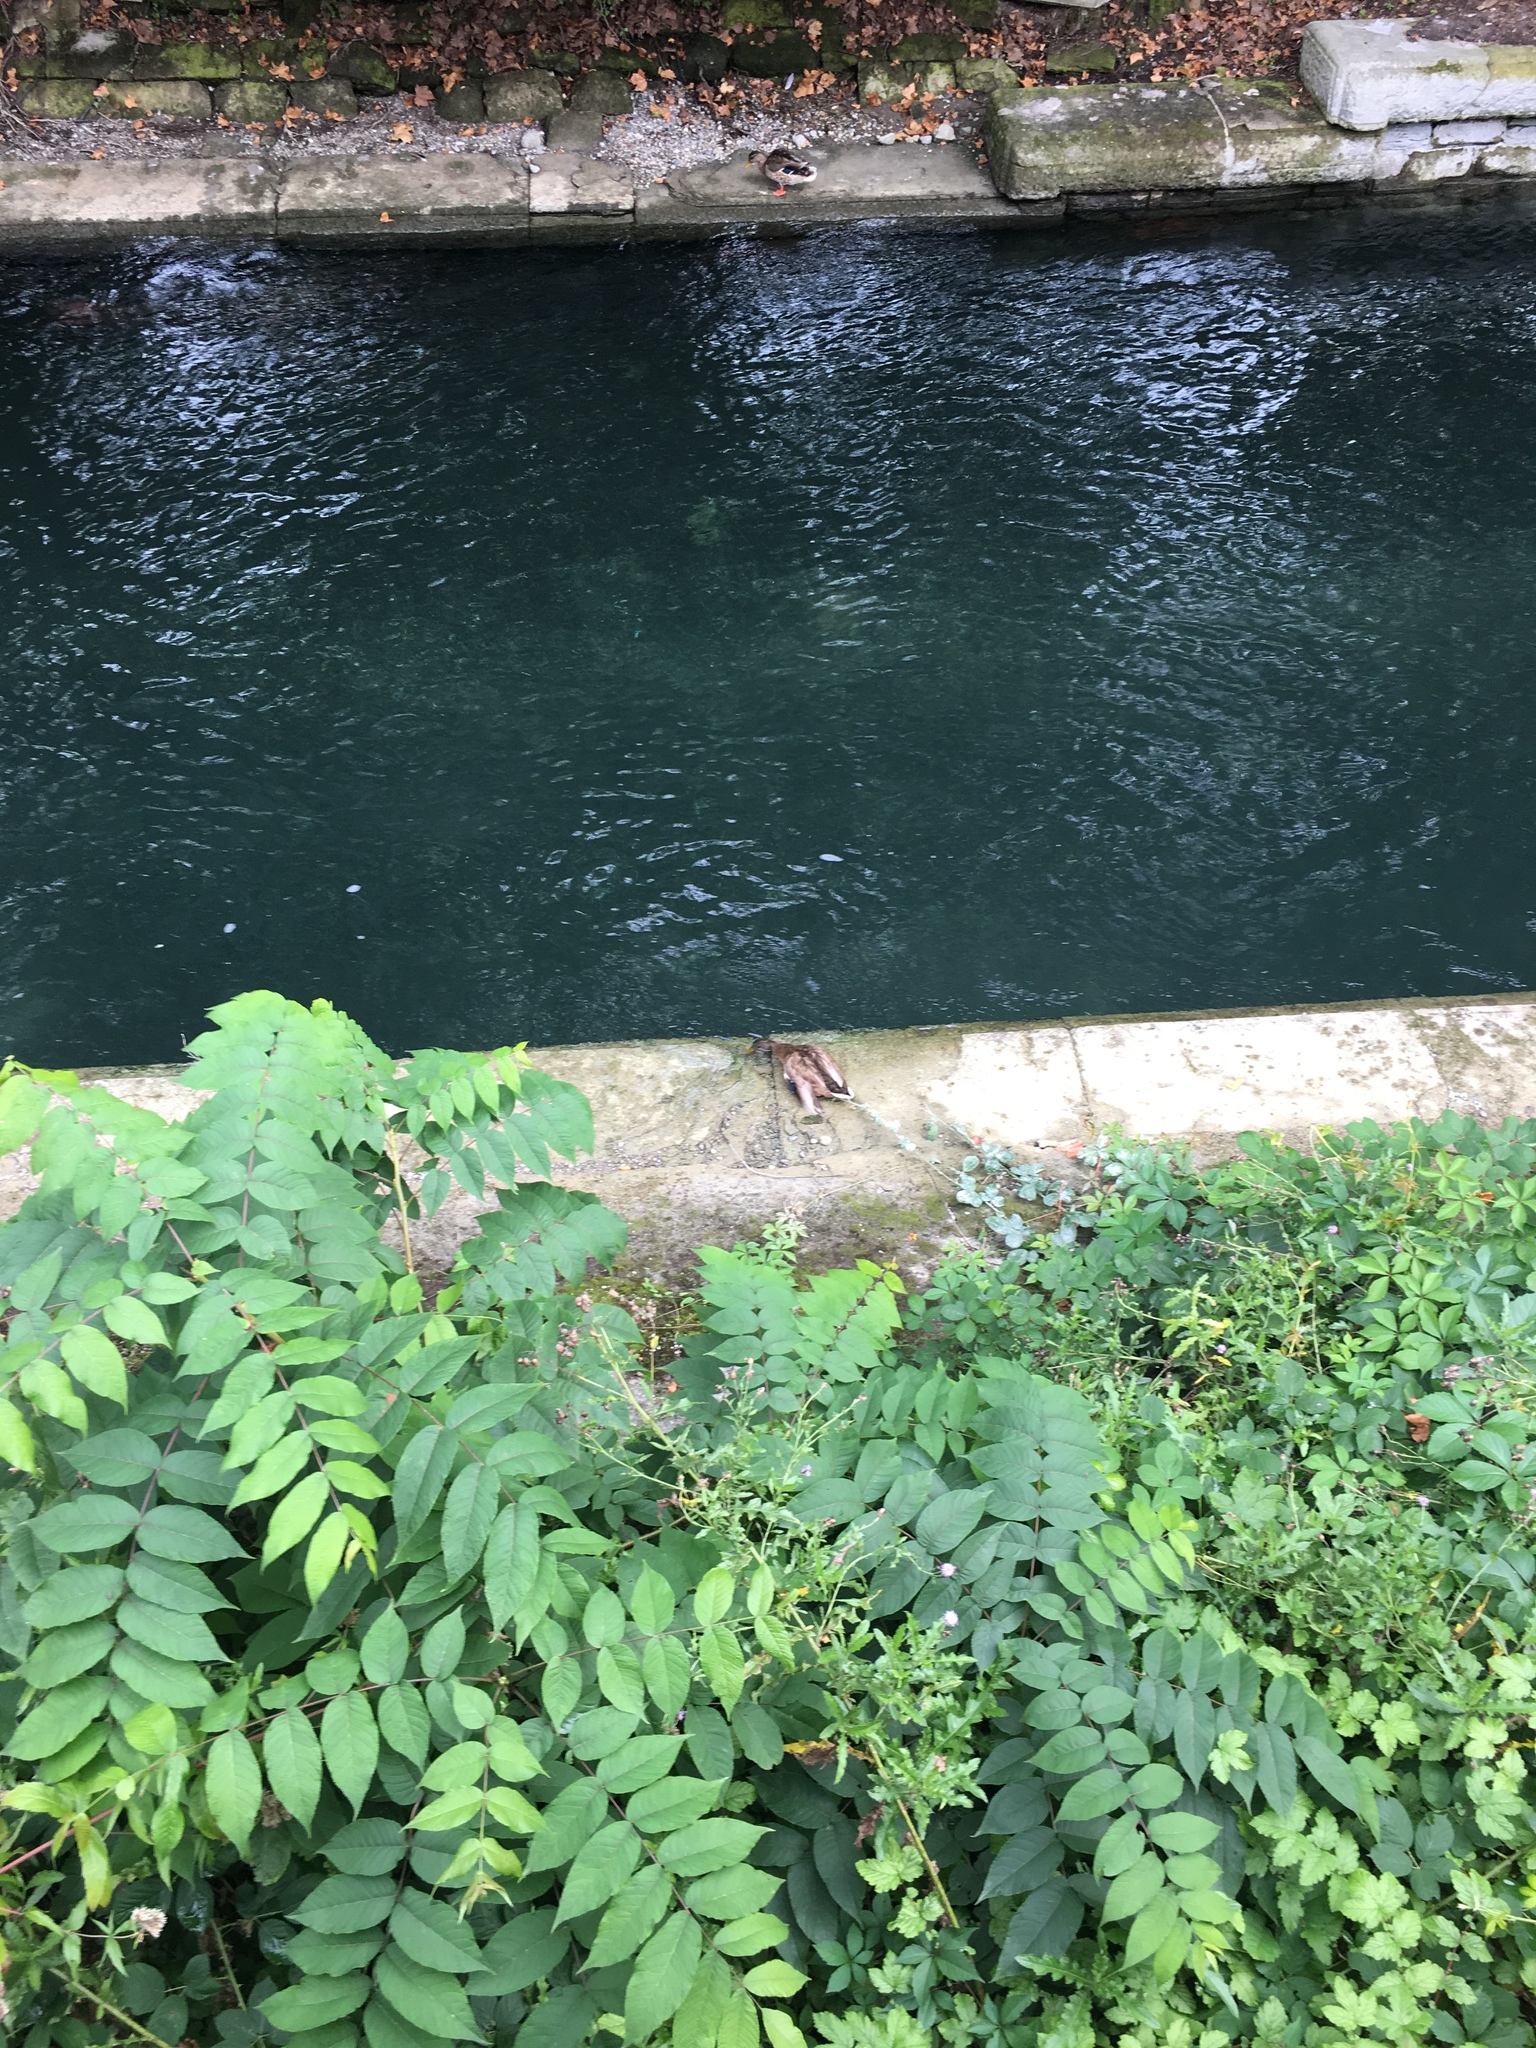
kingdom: Animalia
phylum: Chordata
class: Aves
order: Anseriformes
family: Anatidae
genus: Anas
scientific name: Anas platyrhynchos
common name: Mallard
